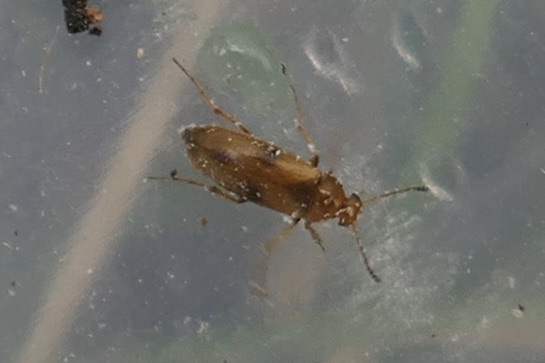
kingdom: Animalia
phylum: Arthropoda
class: Insecta
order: Coleoptera
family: Scraptiidae
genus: Anaspis
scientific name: Anaspis maculata
